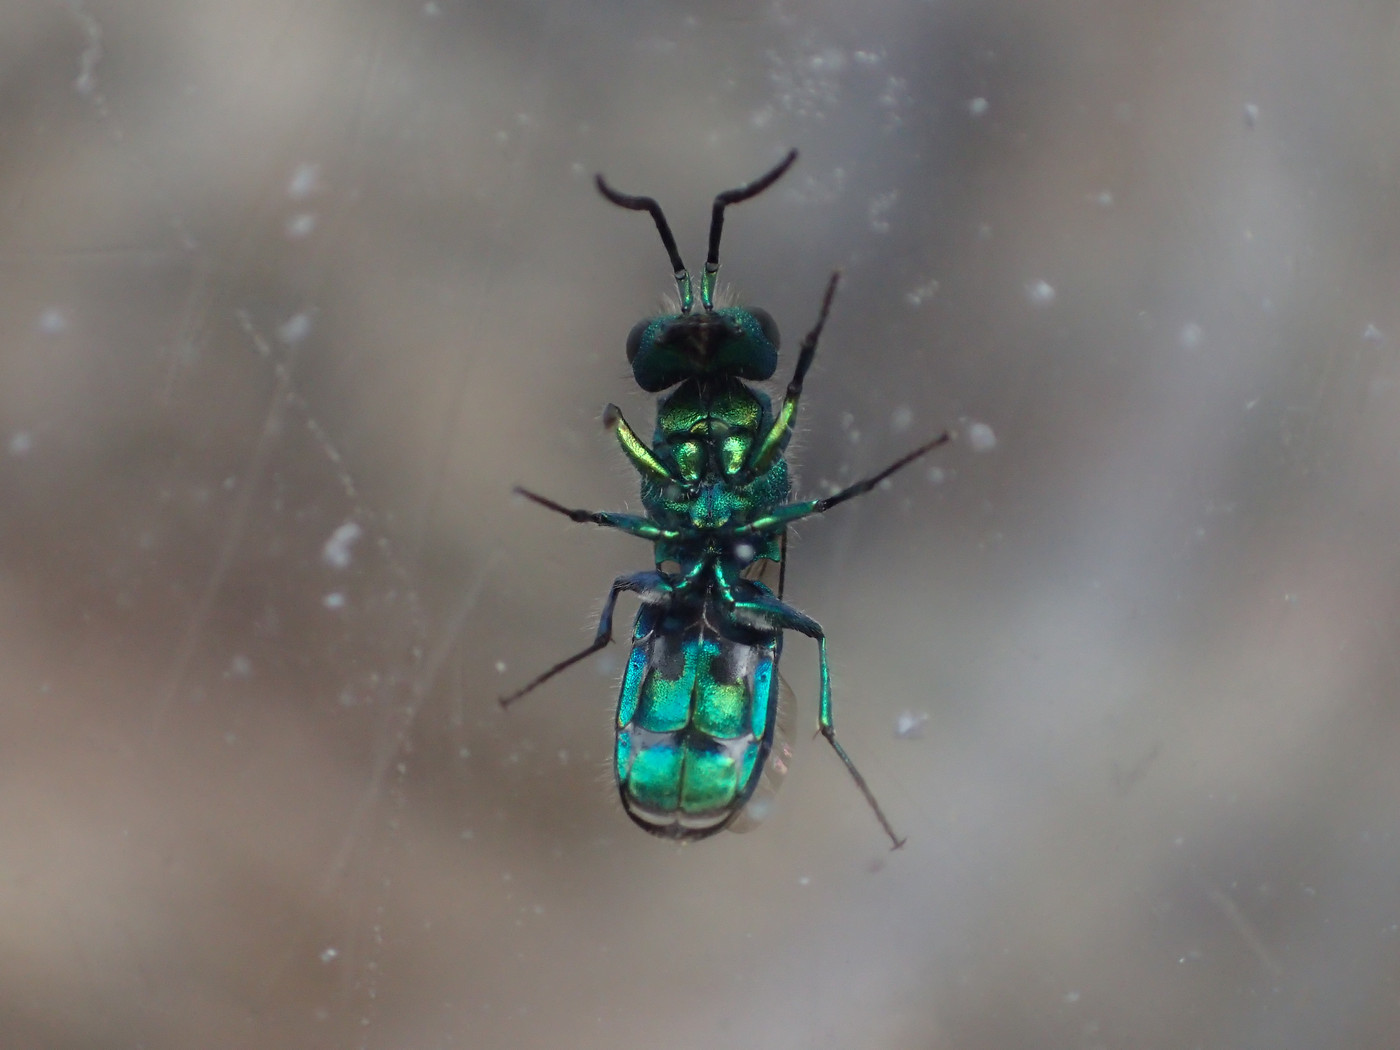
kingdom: Animalia
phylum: Arthropoda
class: Insecta
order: Hymenoptera
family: Chrysididae
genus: Chrysura
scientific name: Chrysura
